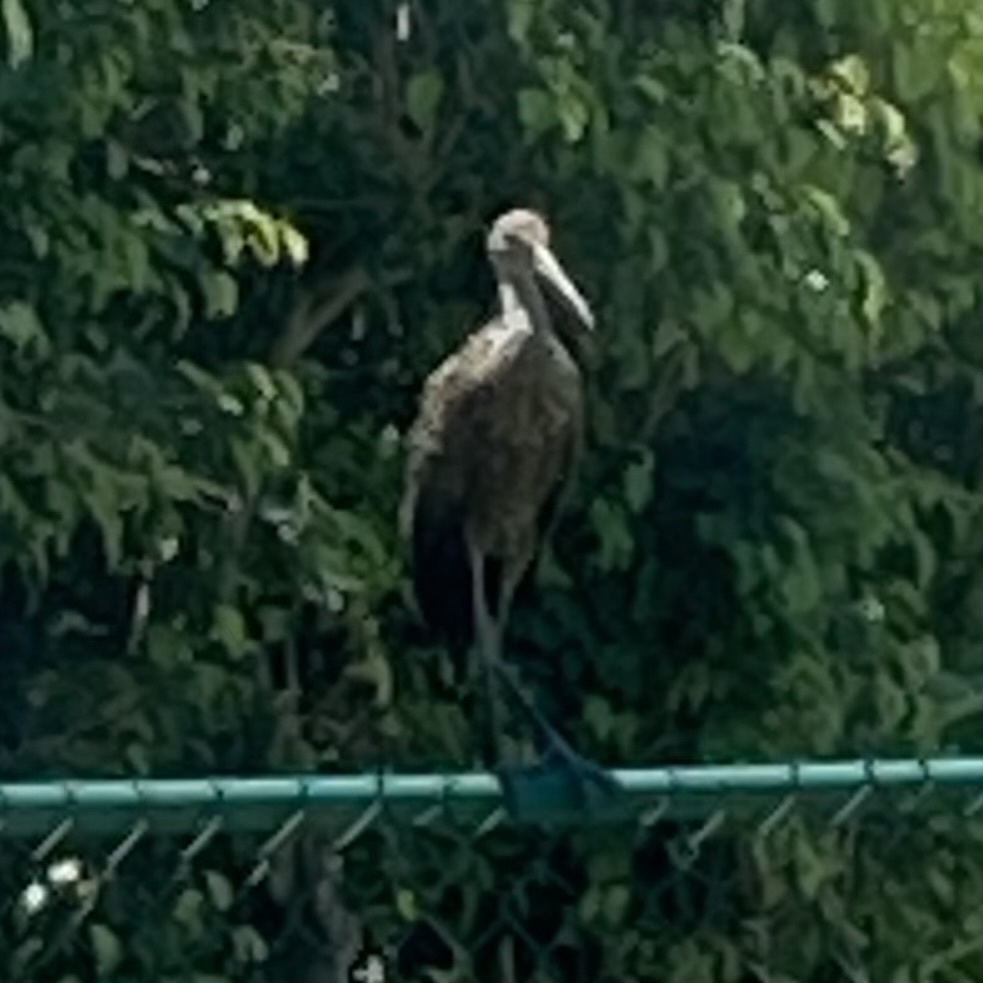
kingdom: Animalia
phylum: Chordata
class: Aves
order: Gruiformes
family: Aramidae
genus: Aramus
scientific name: Aramus guarauna
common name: Limpkin
